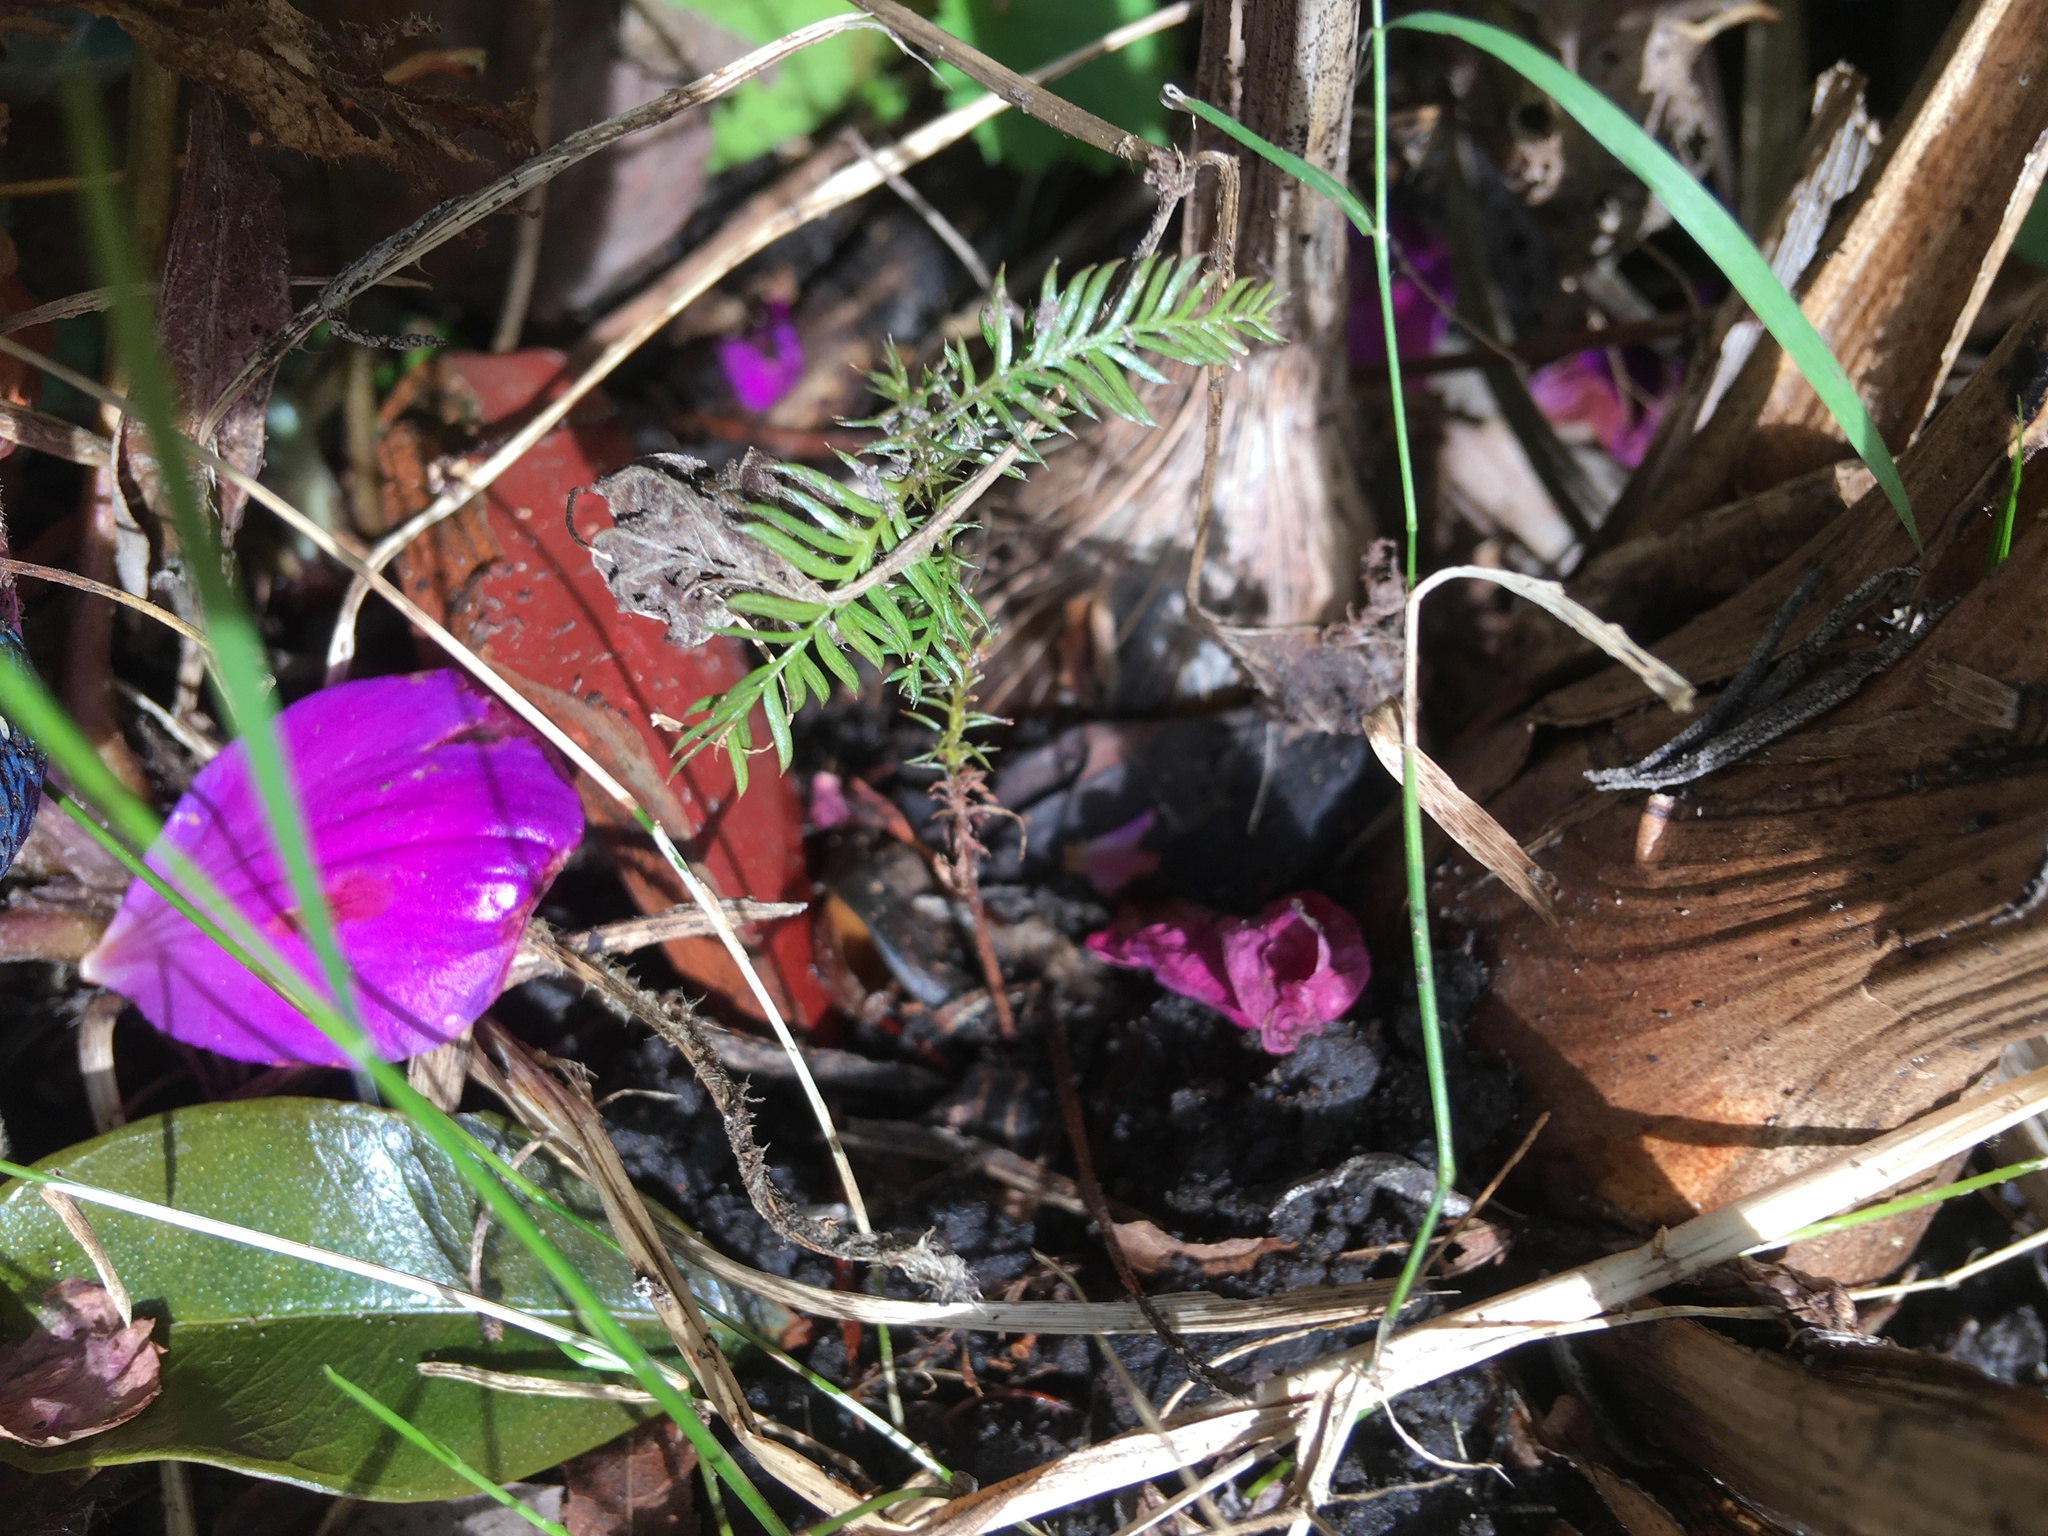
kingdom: Plantae
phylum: Tracheophyta
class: Pinopsida
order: Pinales
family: Podocarpaceae
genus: Dacrycarpus
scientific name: Dacrycarpus dacrydioides
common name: White pine
